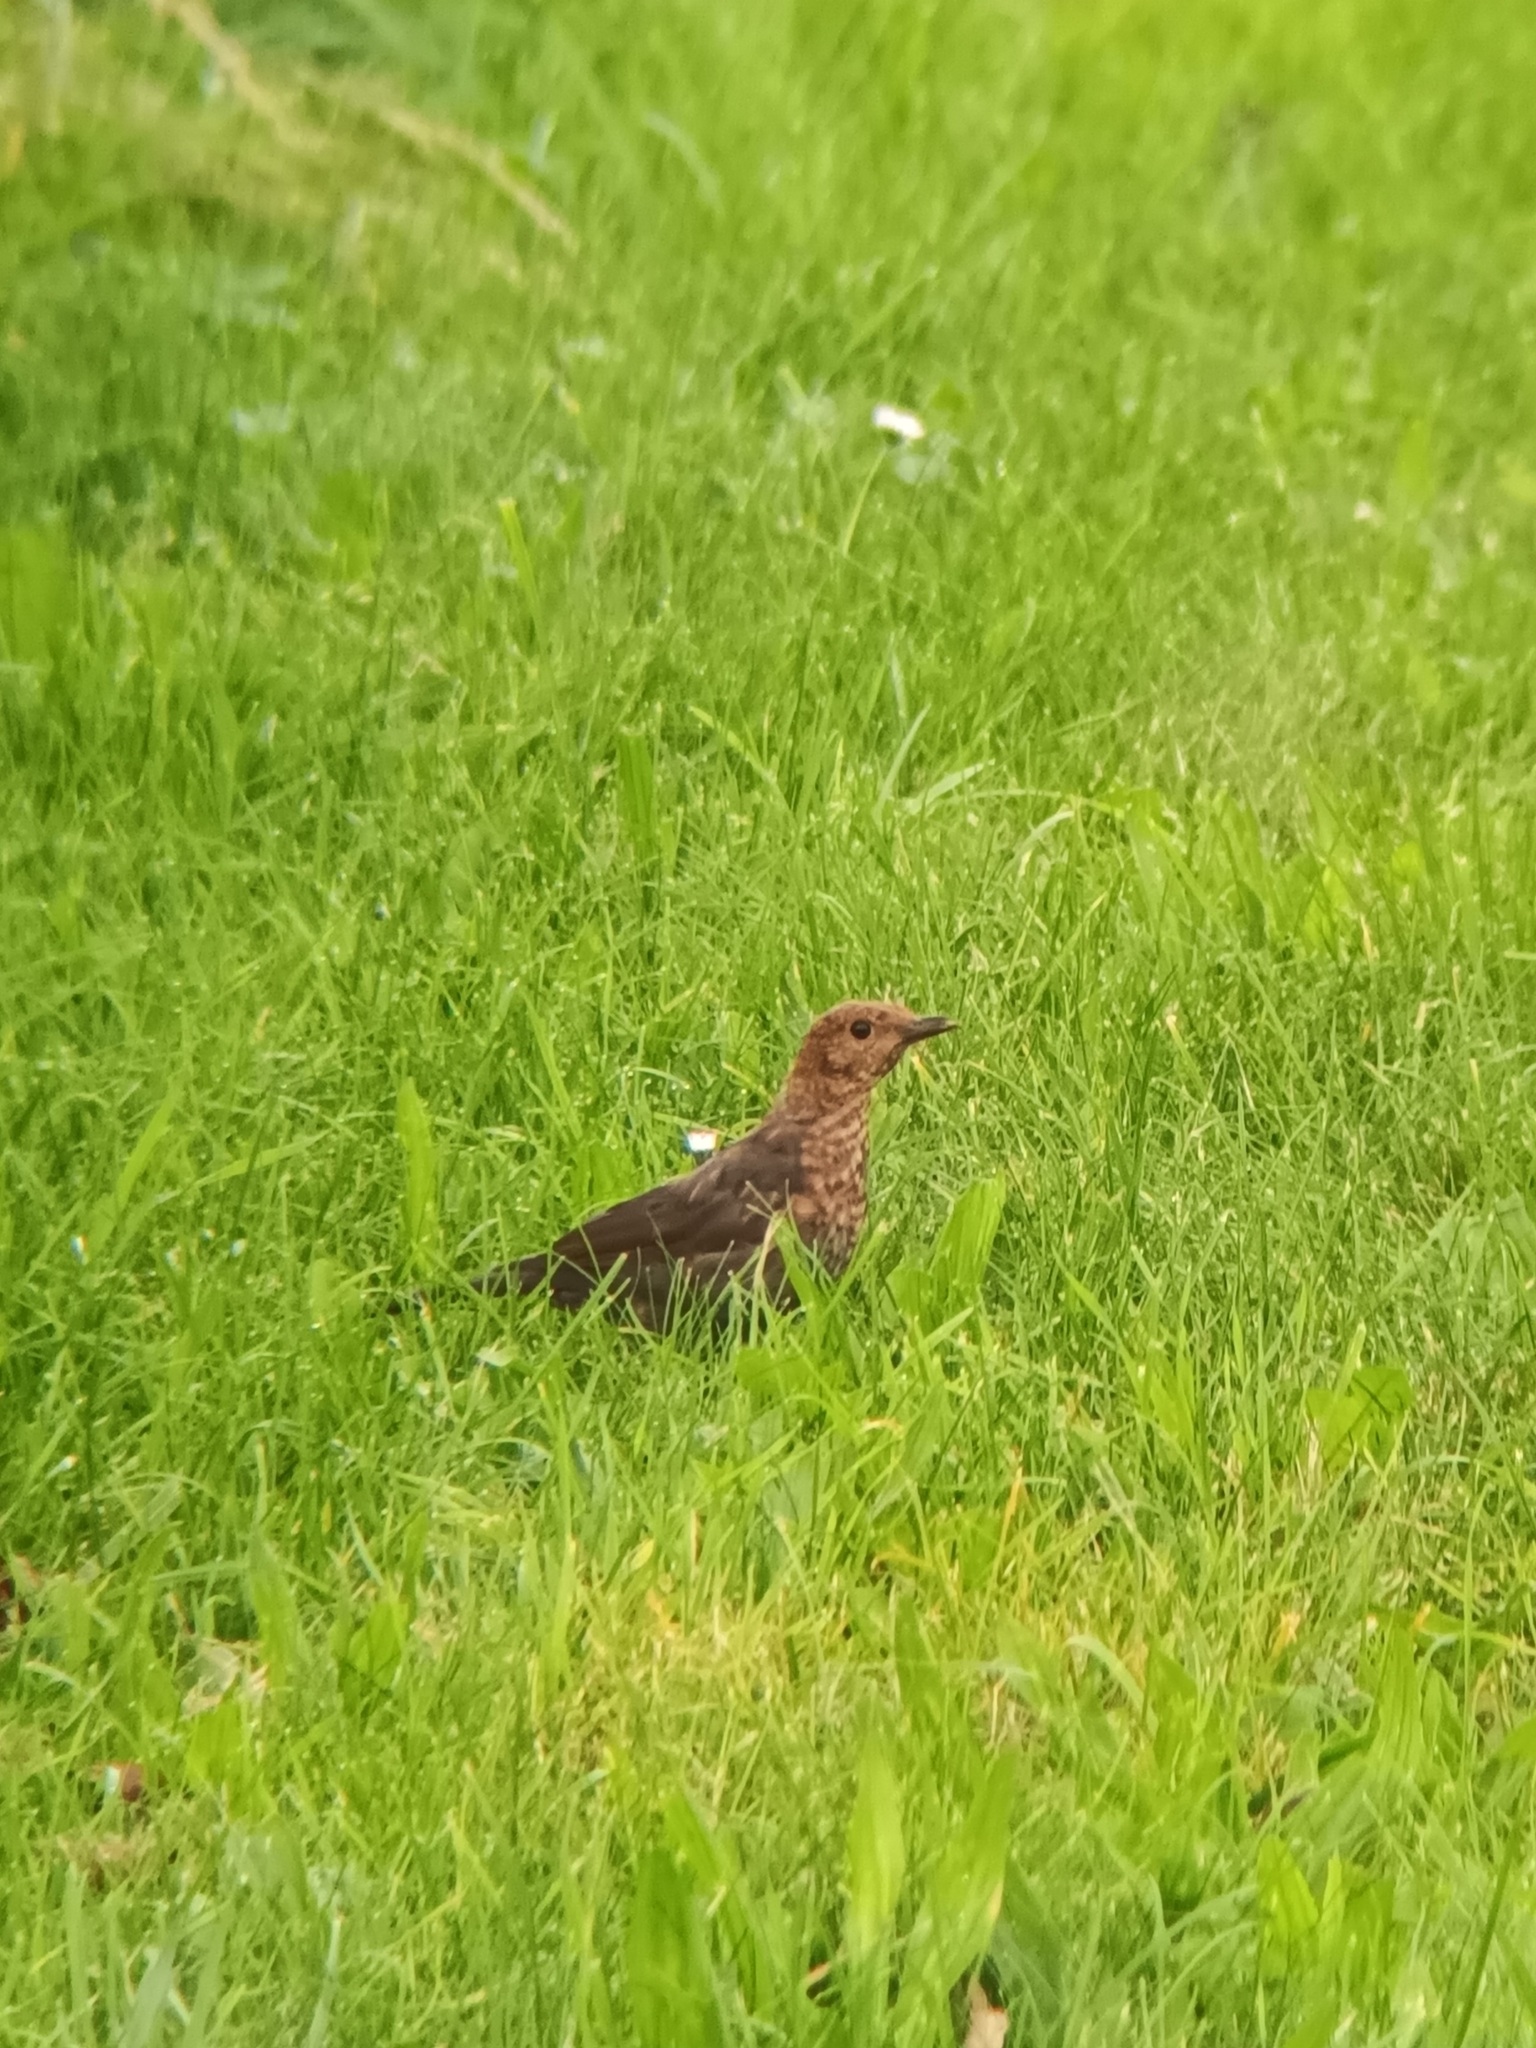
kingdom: Animalia
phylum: Chordata
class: Aves
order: Passeriformes
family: Turdidae
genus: Turdus
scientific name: Turdus merula
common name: Common blackbird
